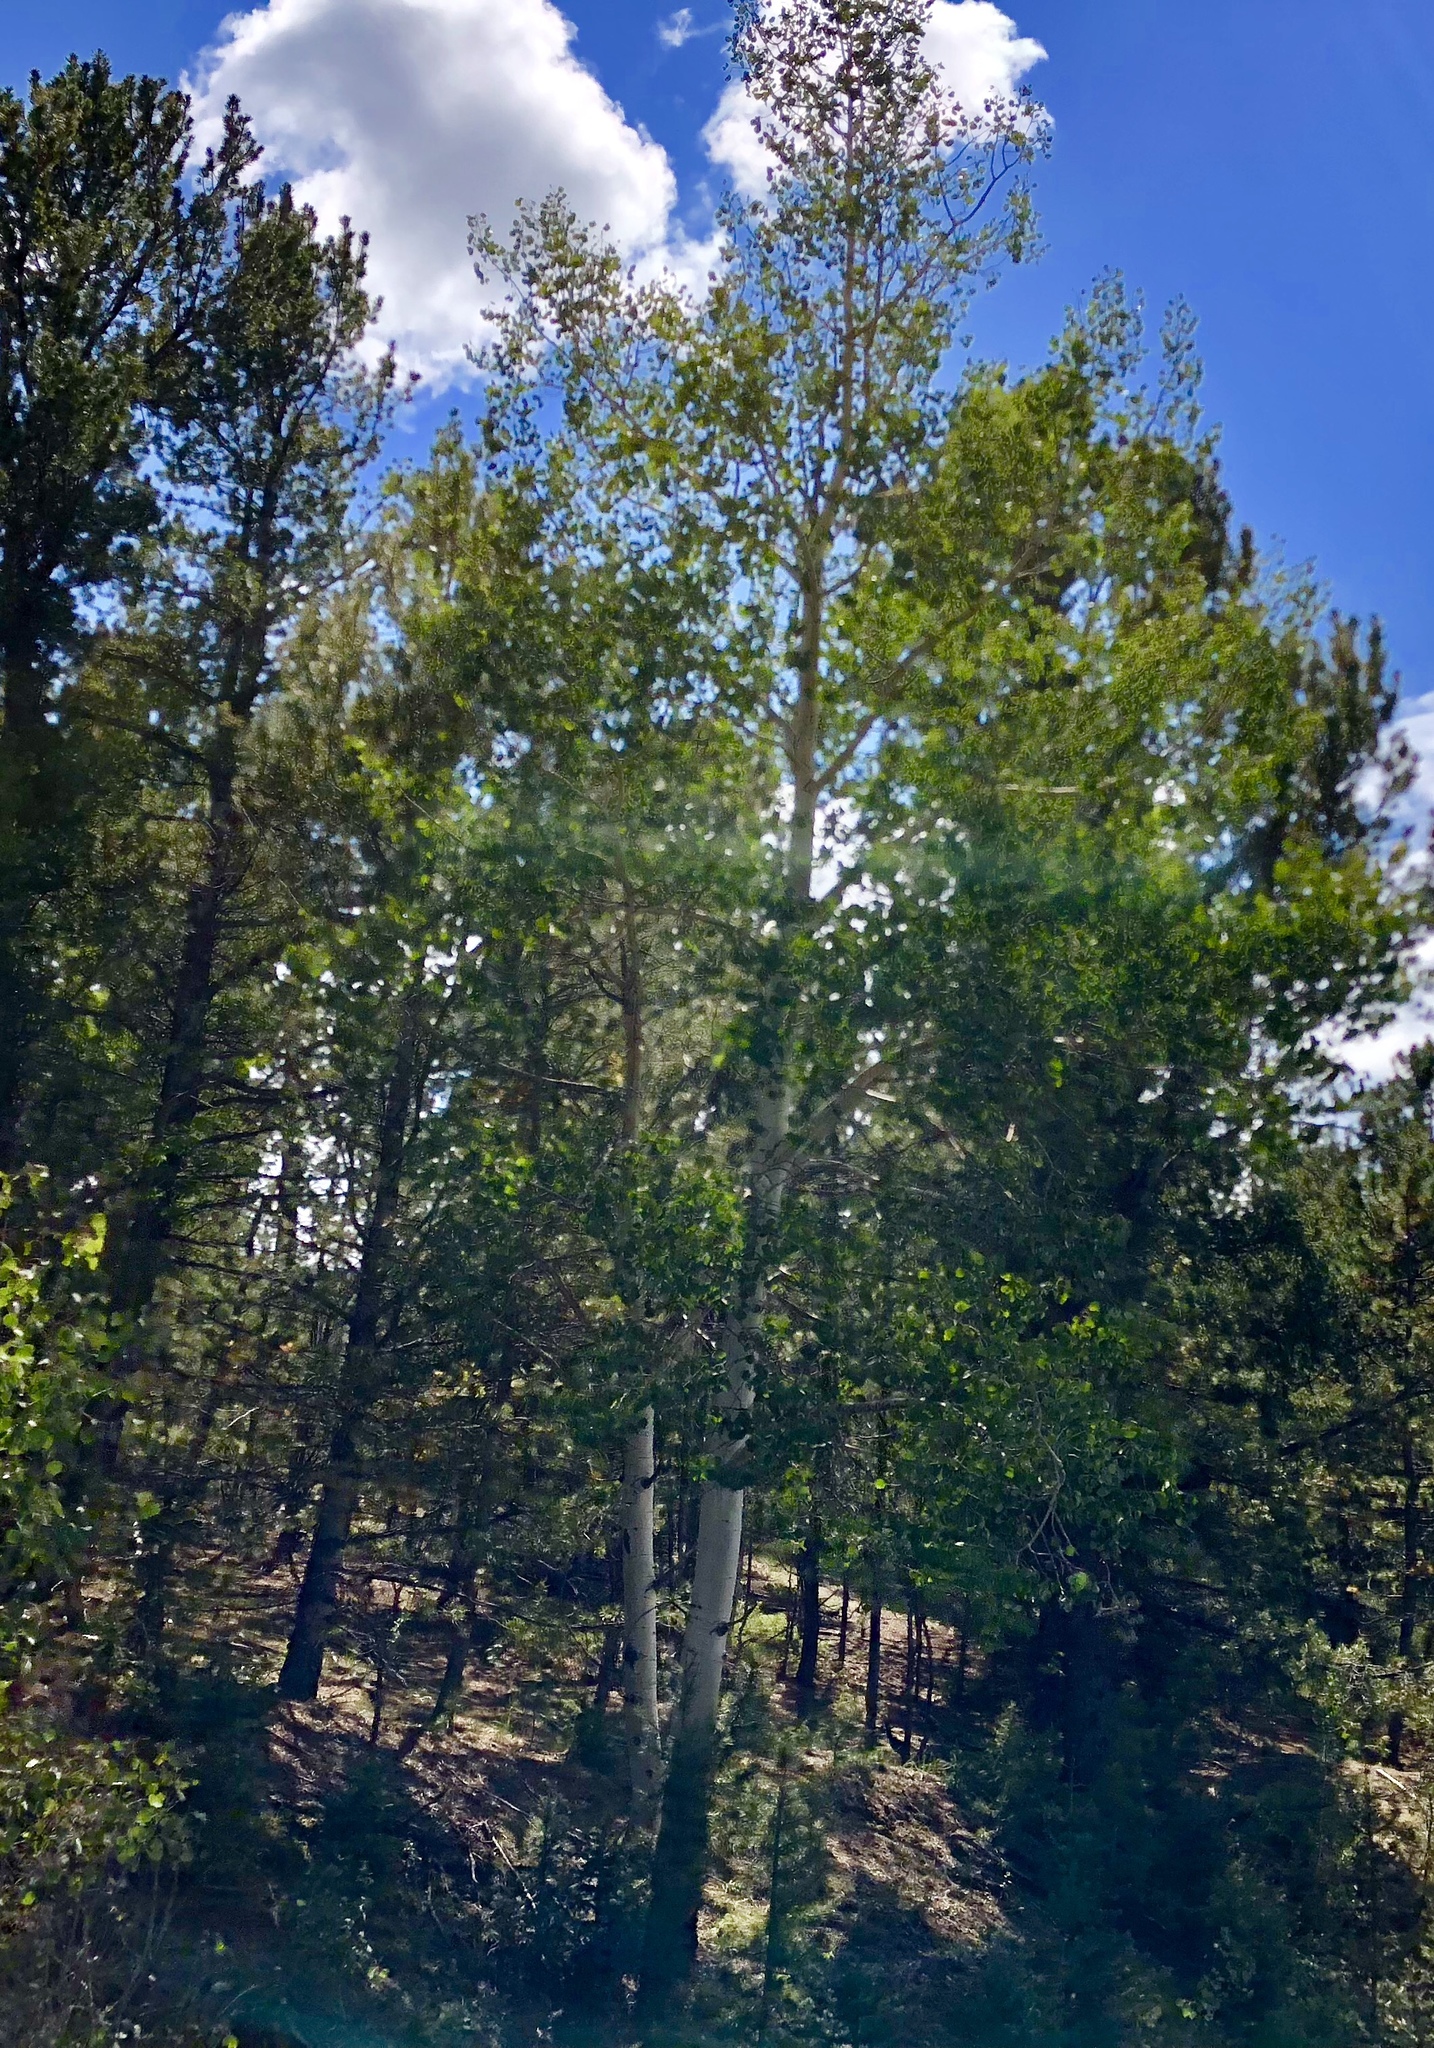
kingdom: Plantae
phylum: Tracheophyta
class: Magnoliopsida
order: Malpighiales
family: Salicaceae
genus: Populus
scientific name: Populus tremuloides
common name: Quaking aspen
